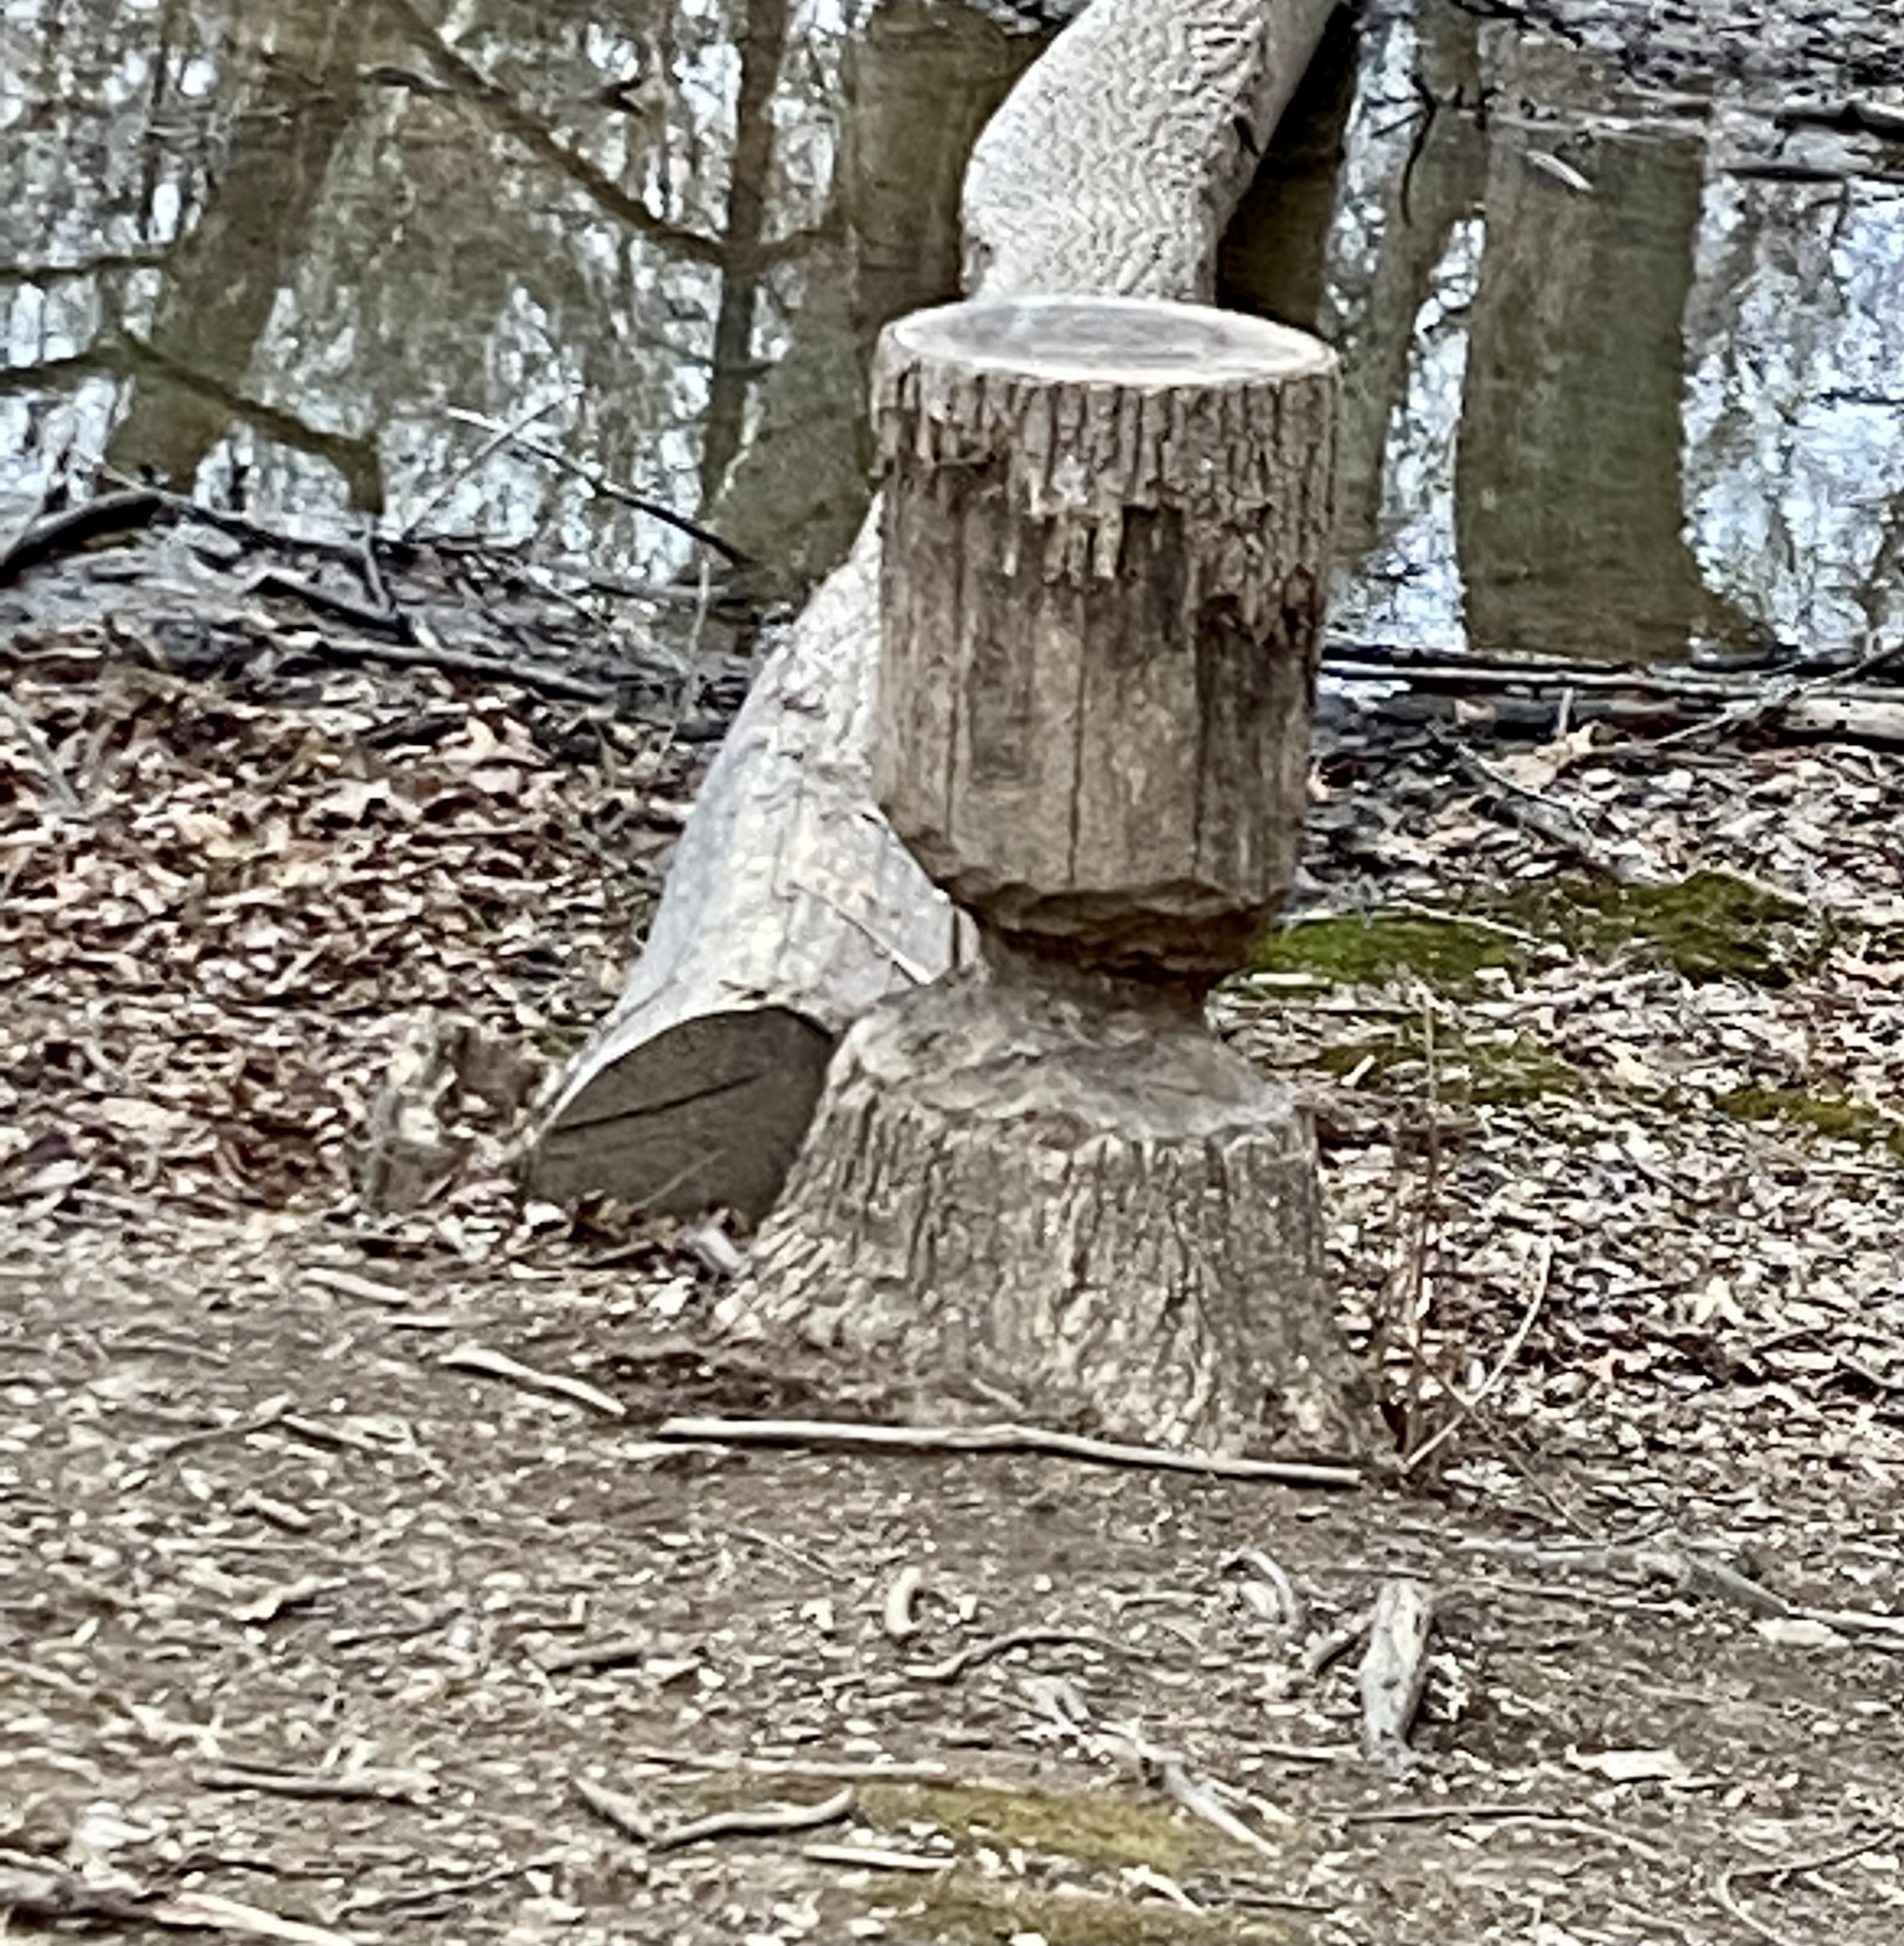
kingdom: Animalia
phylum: Chordata
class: Mammalia
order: Rodentia
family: Castoridae
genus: Castor
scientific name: Castor canadensis
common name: American beaver
